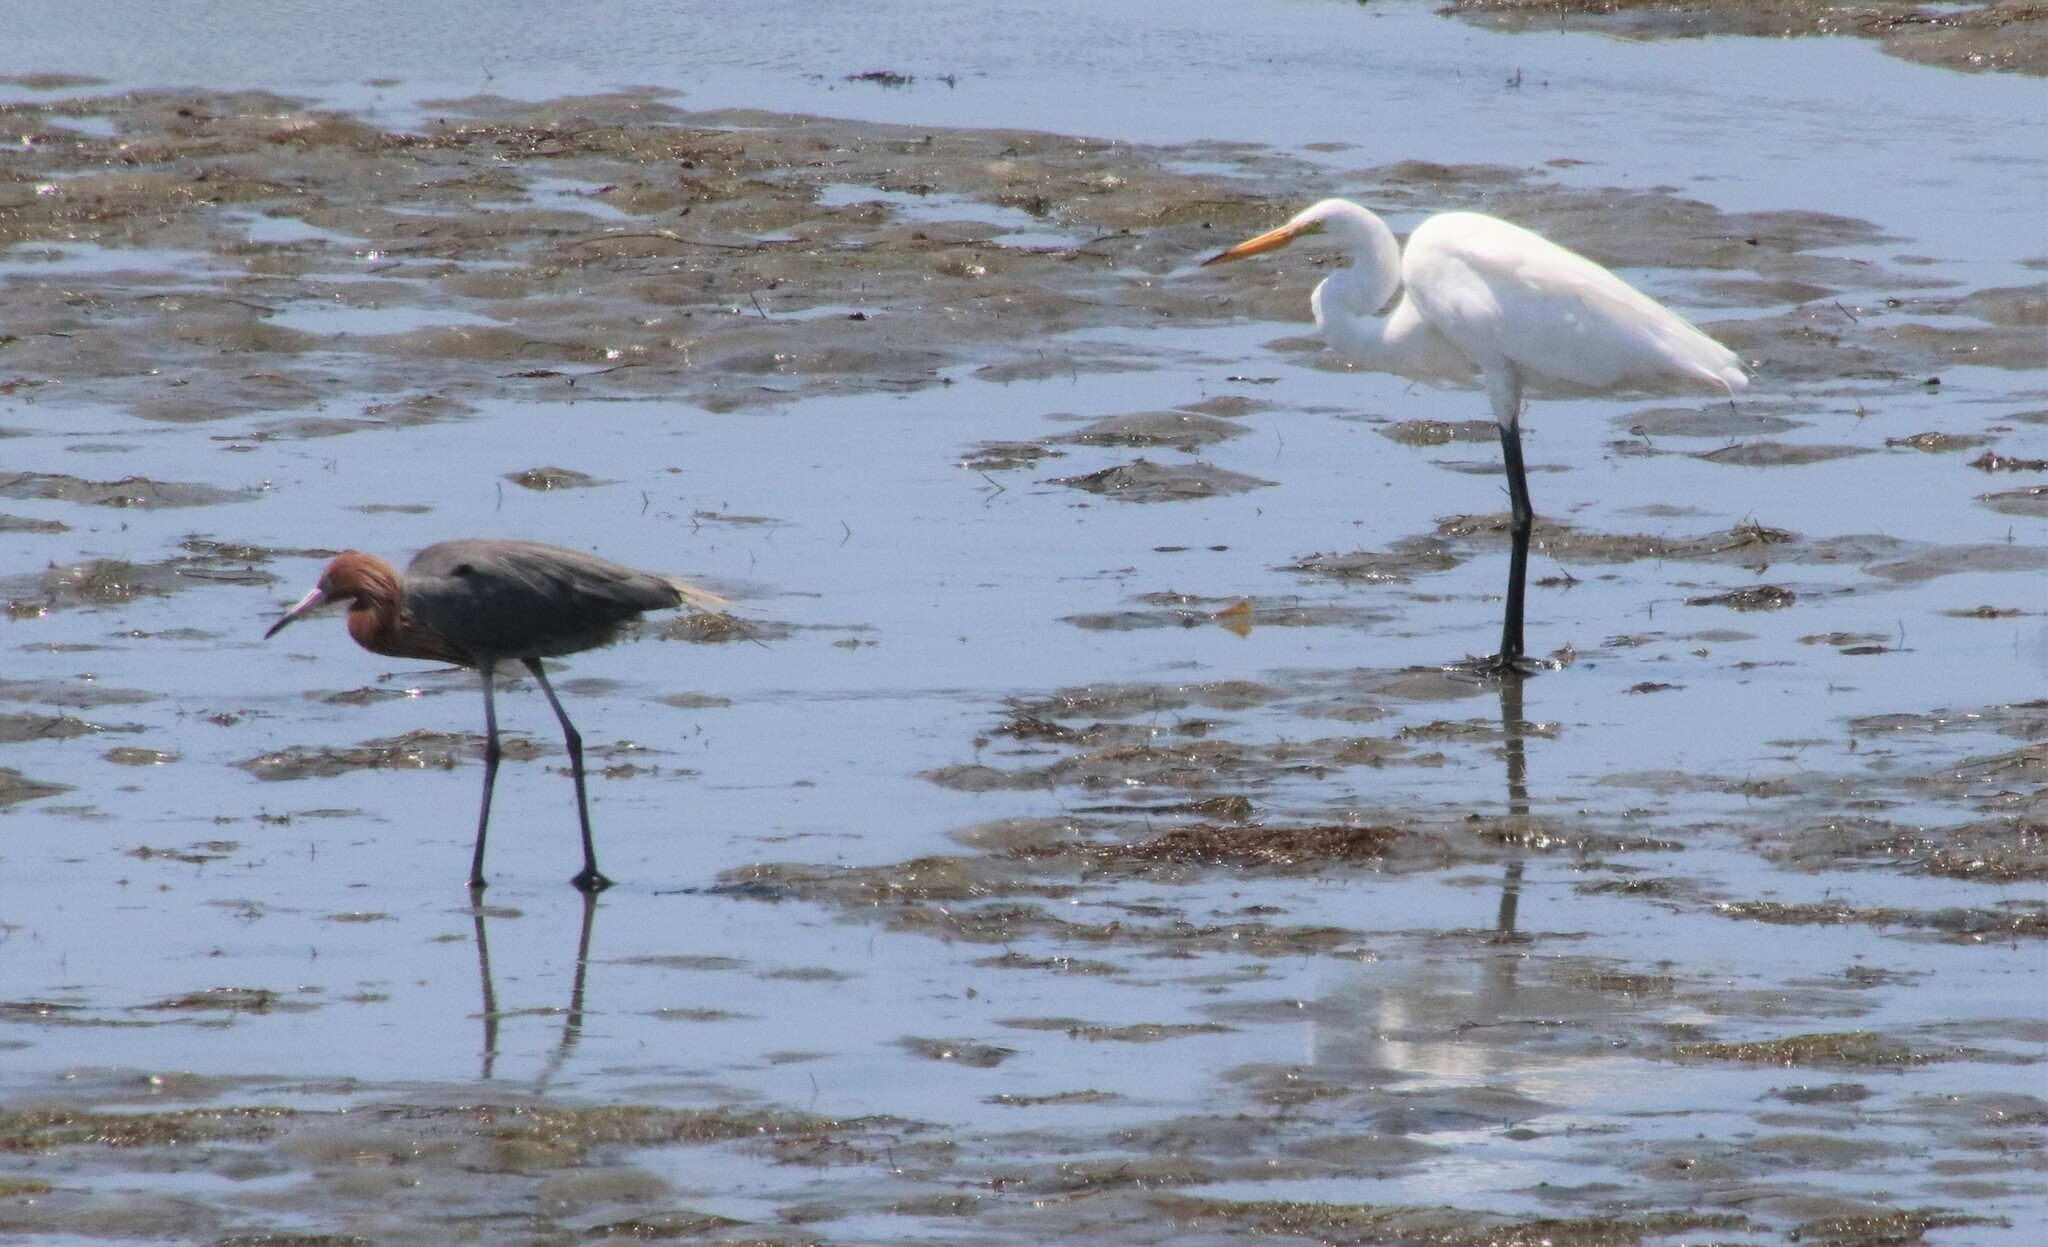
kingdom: Animalia
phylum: Chordata
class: Aves
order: Pelecaniformes
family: Ardeidae
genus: Egretta
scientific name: Egretta rufescens
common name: Reddish egret
